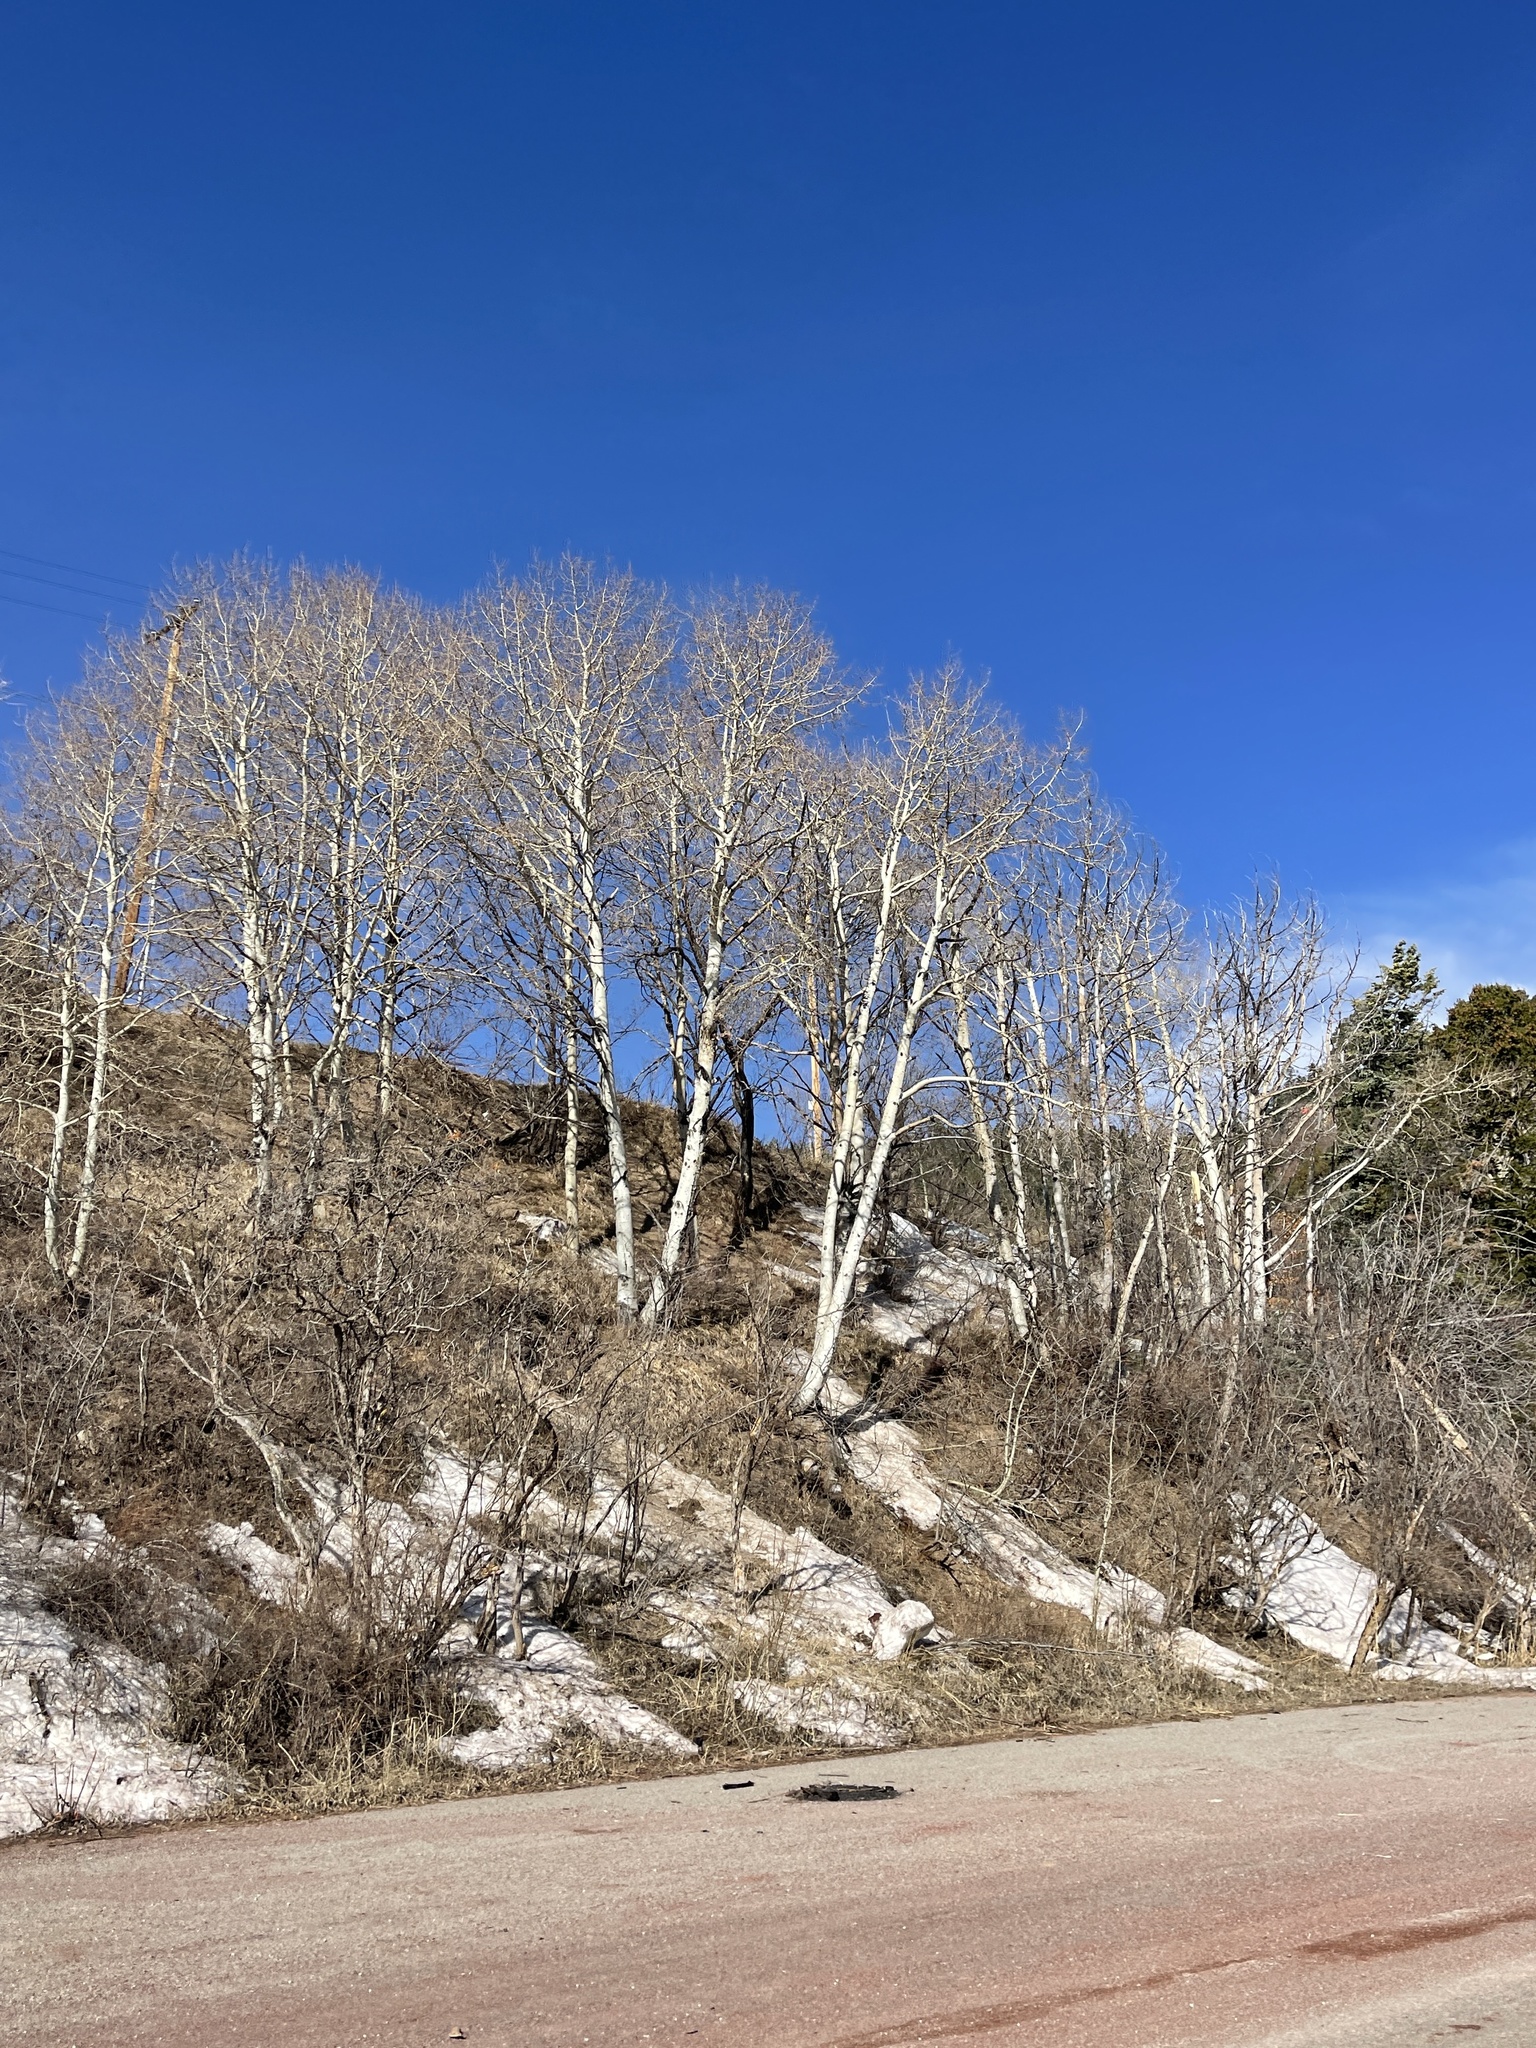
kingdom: Plantae
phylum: Tracheophyta
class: Magnoliopsida
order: Malpighiales
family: Salicaceae
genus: Populus
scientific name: Populus tremuloides
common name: Quaking aspen
